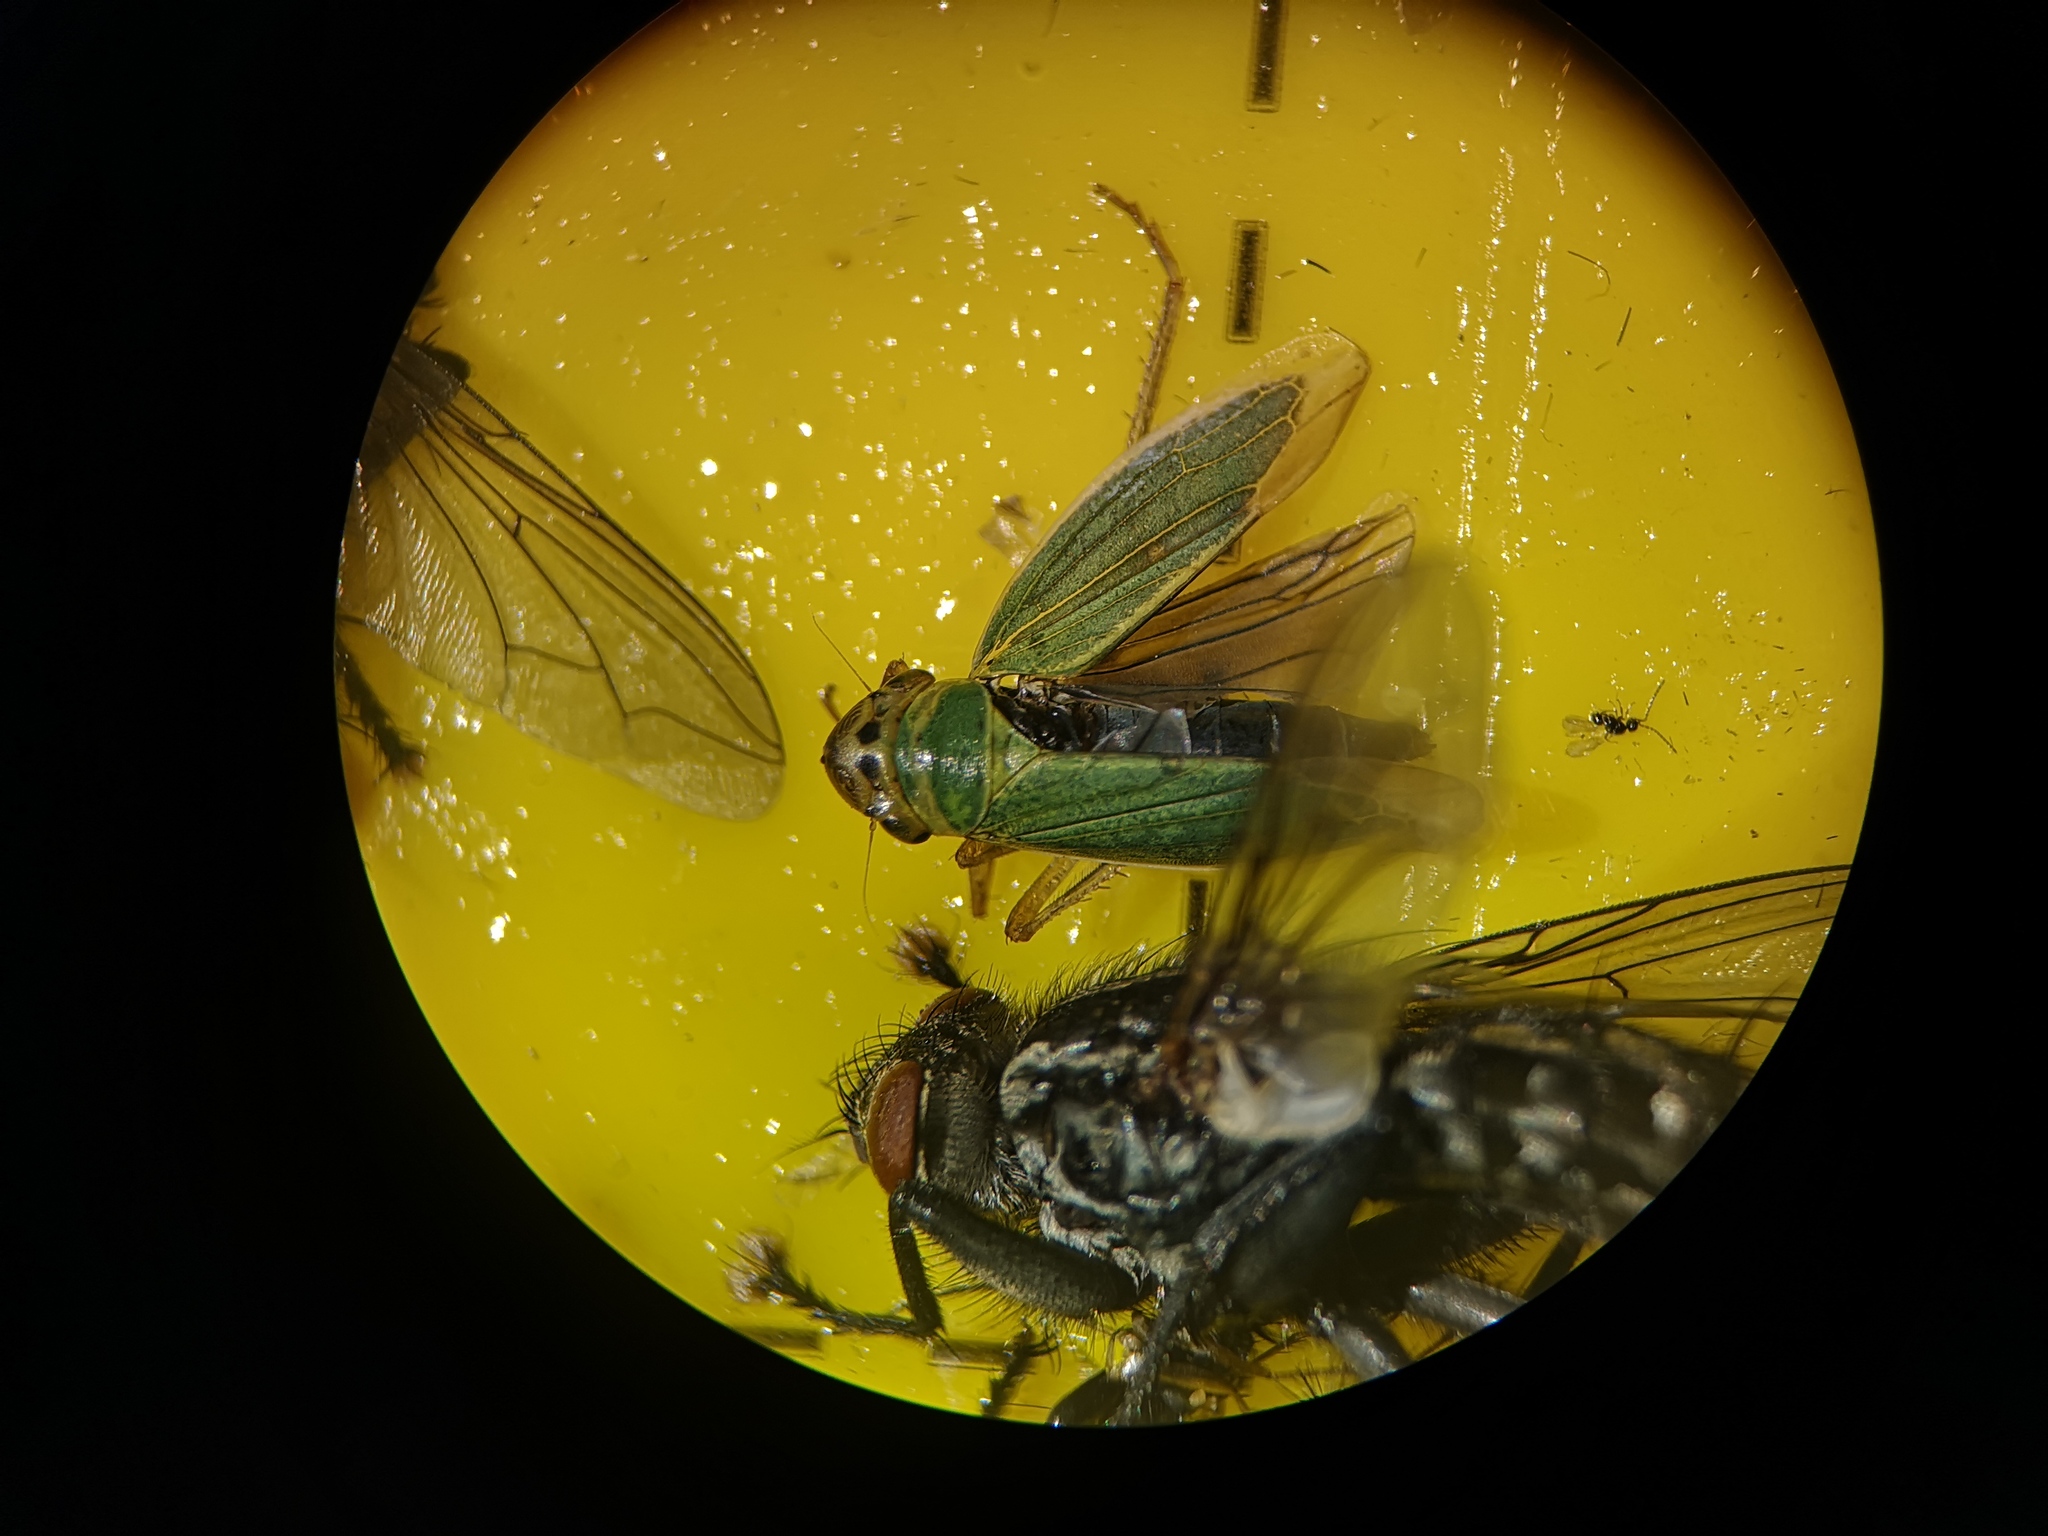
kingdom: Animalia
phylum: Arthropoda
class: Insecta
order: Hemiptera
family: Cicadellidae
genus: Cicadella
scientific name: Cicadella viridis
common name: Leafhopper
